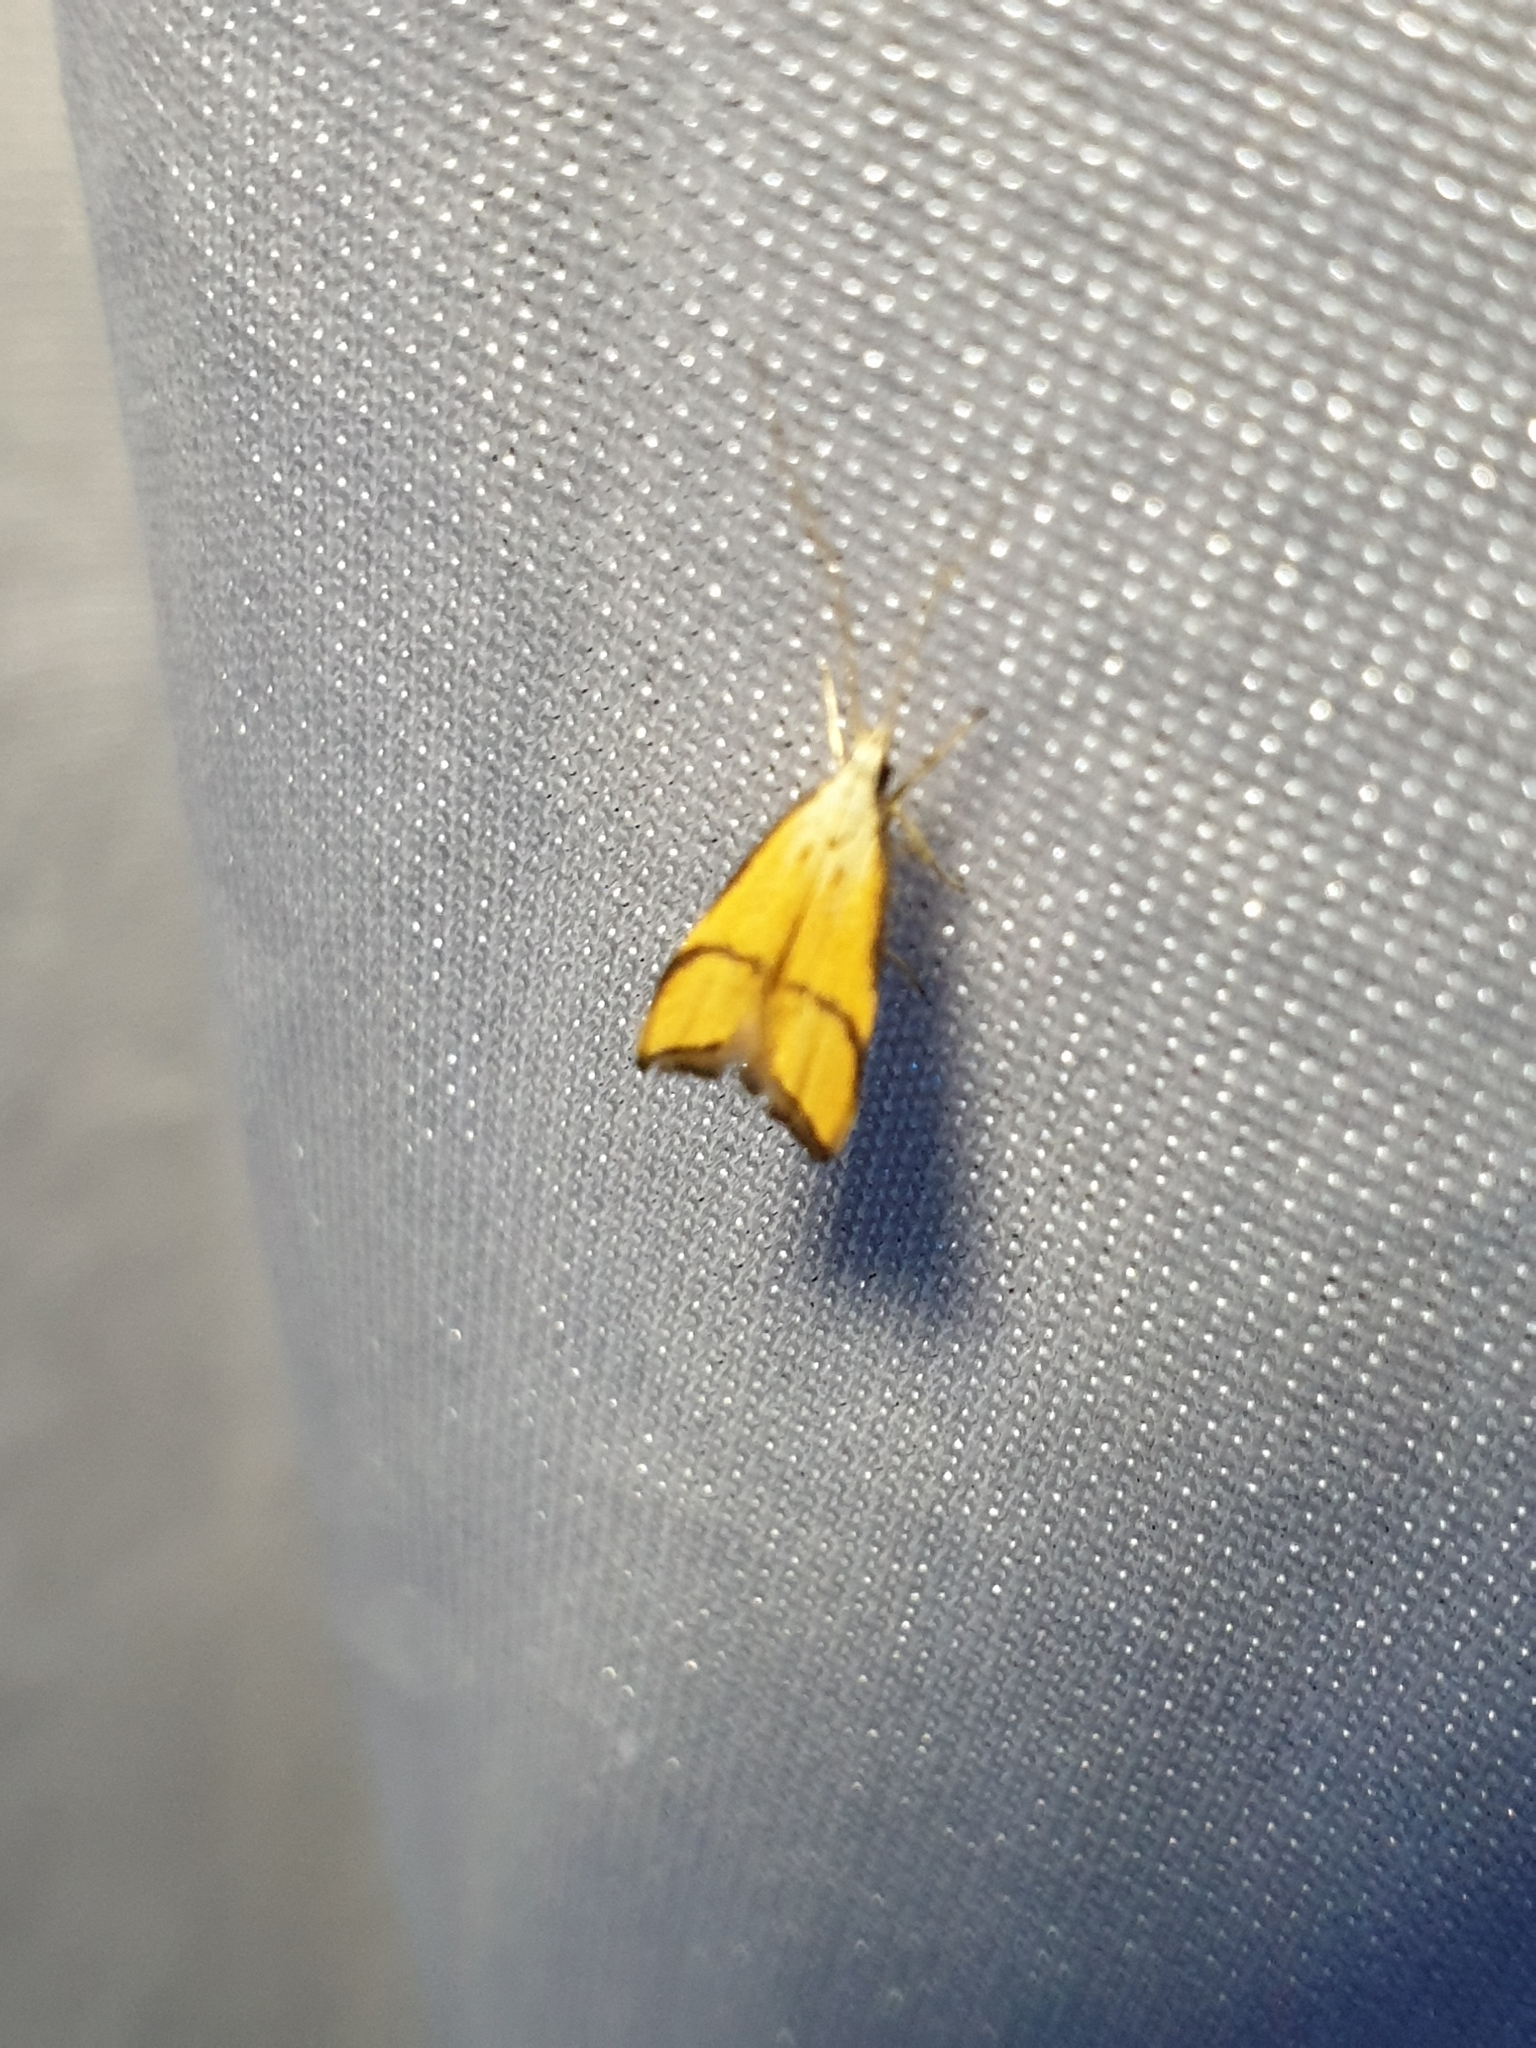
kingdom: Animalia
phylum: Arthropoda
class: Insecta
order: Lepidoptera
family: Lecithoceridae
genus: Crocanthes
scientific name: Crocanthes perigrapta
